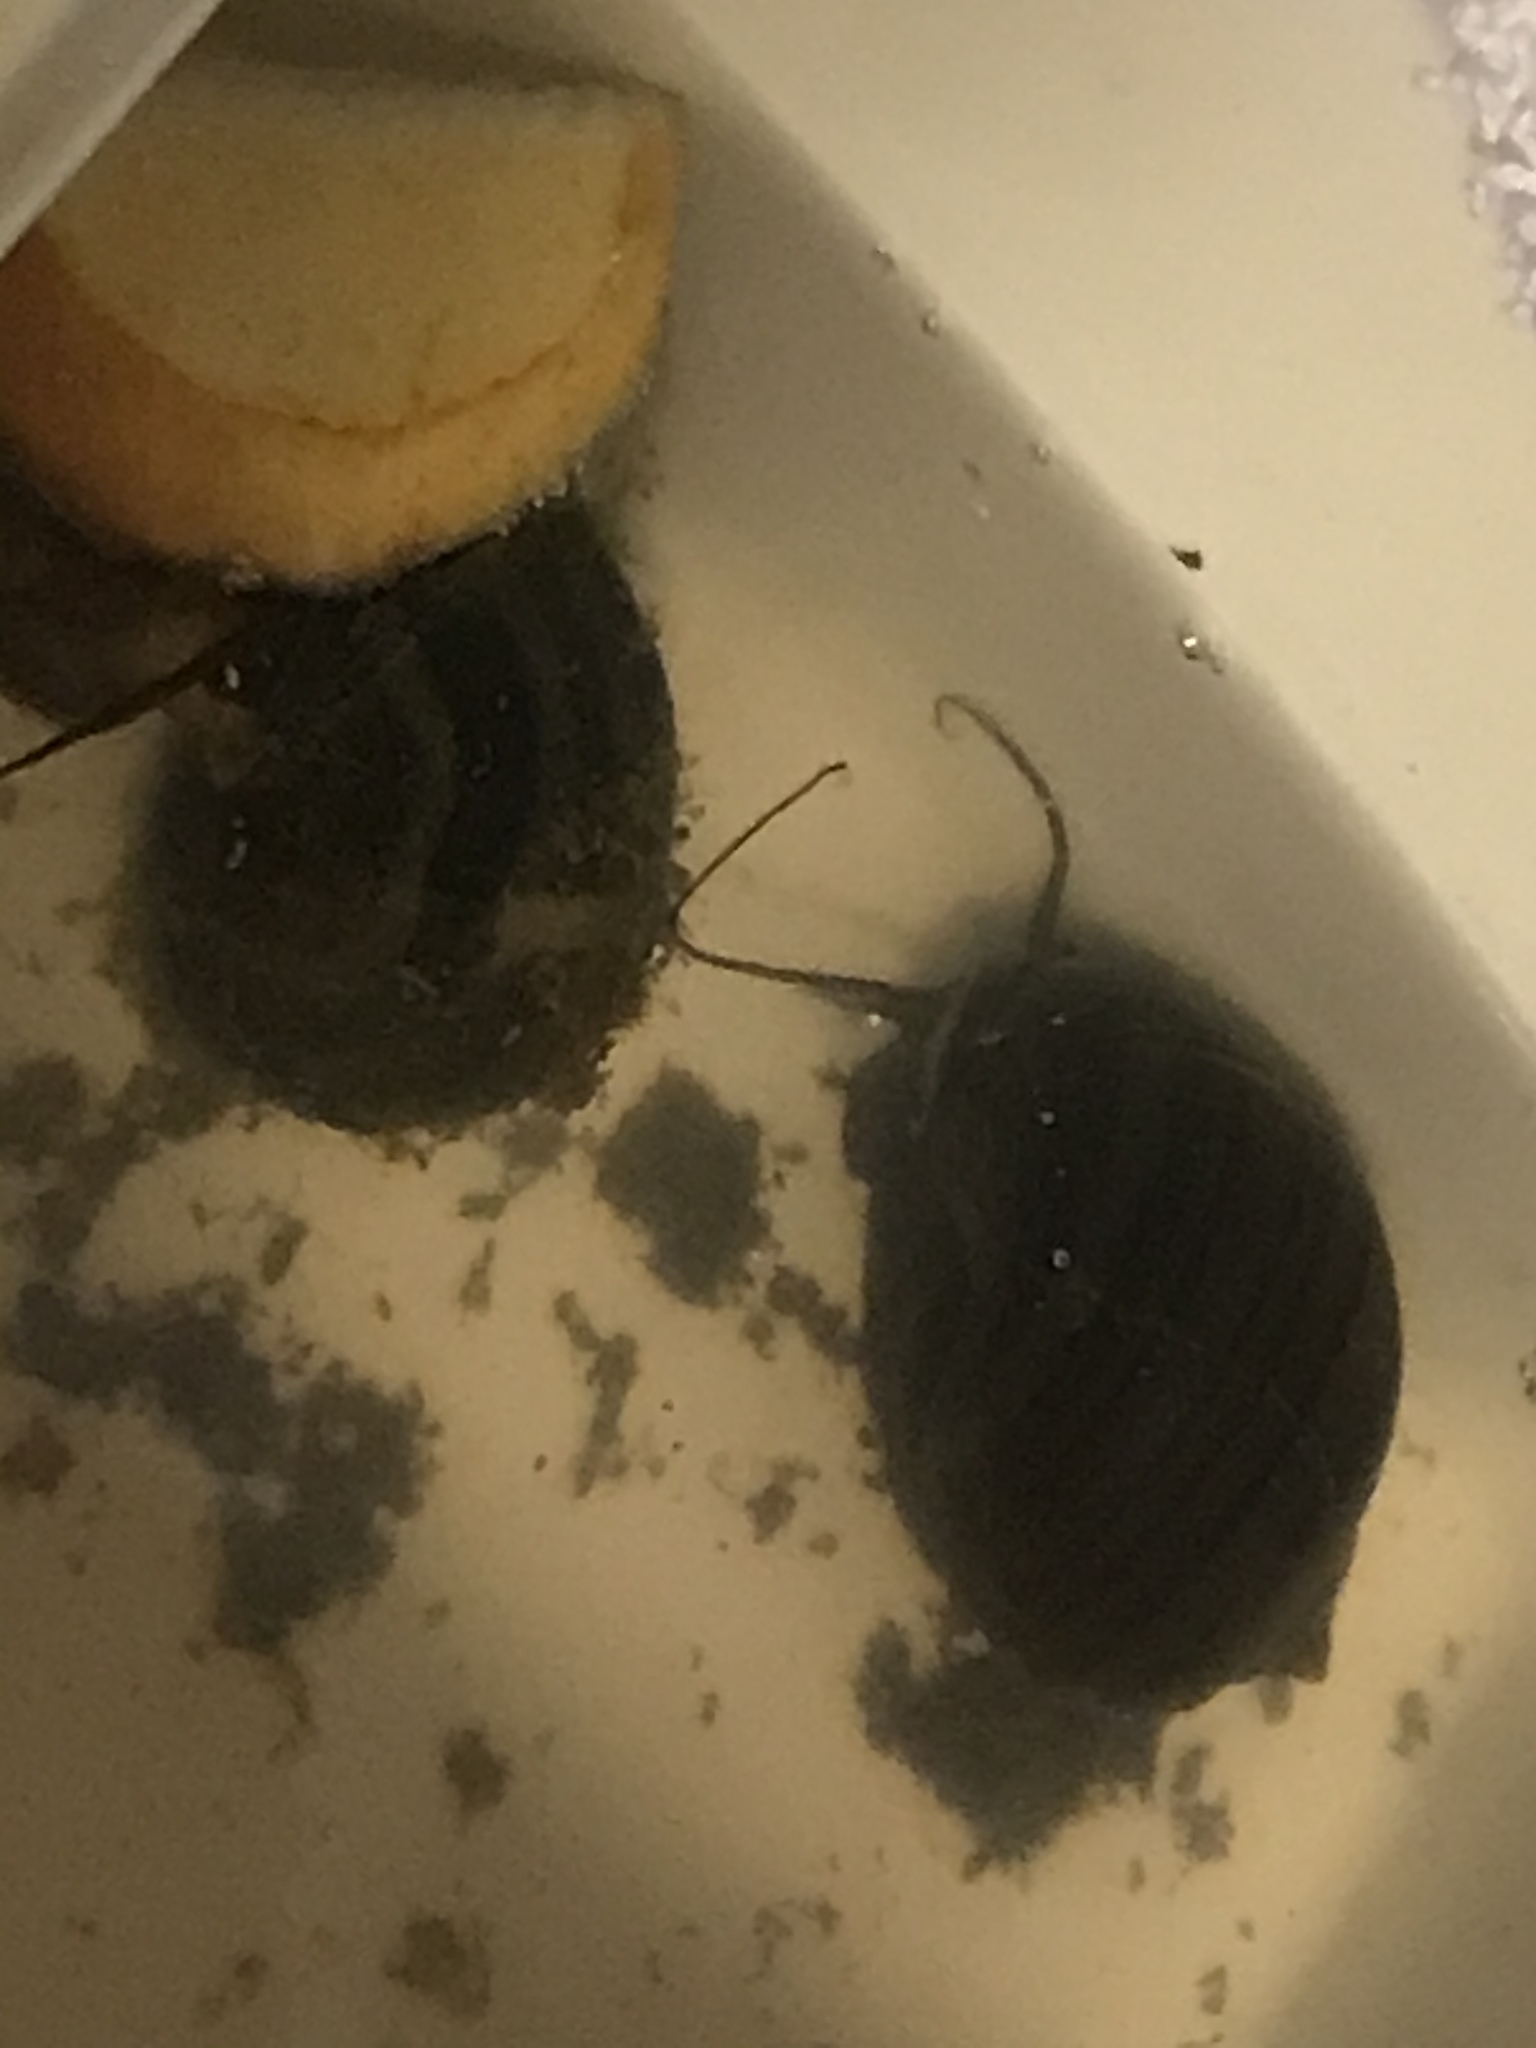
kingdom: Animalia
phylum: Mollusca
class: Gastropoda
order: Architaenioglossa
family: Ampullariidae
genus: Pomacea
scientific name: Pomacea canaliculata
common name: Channeled applesnail
